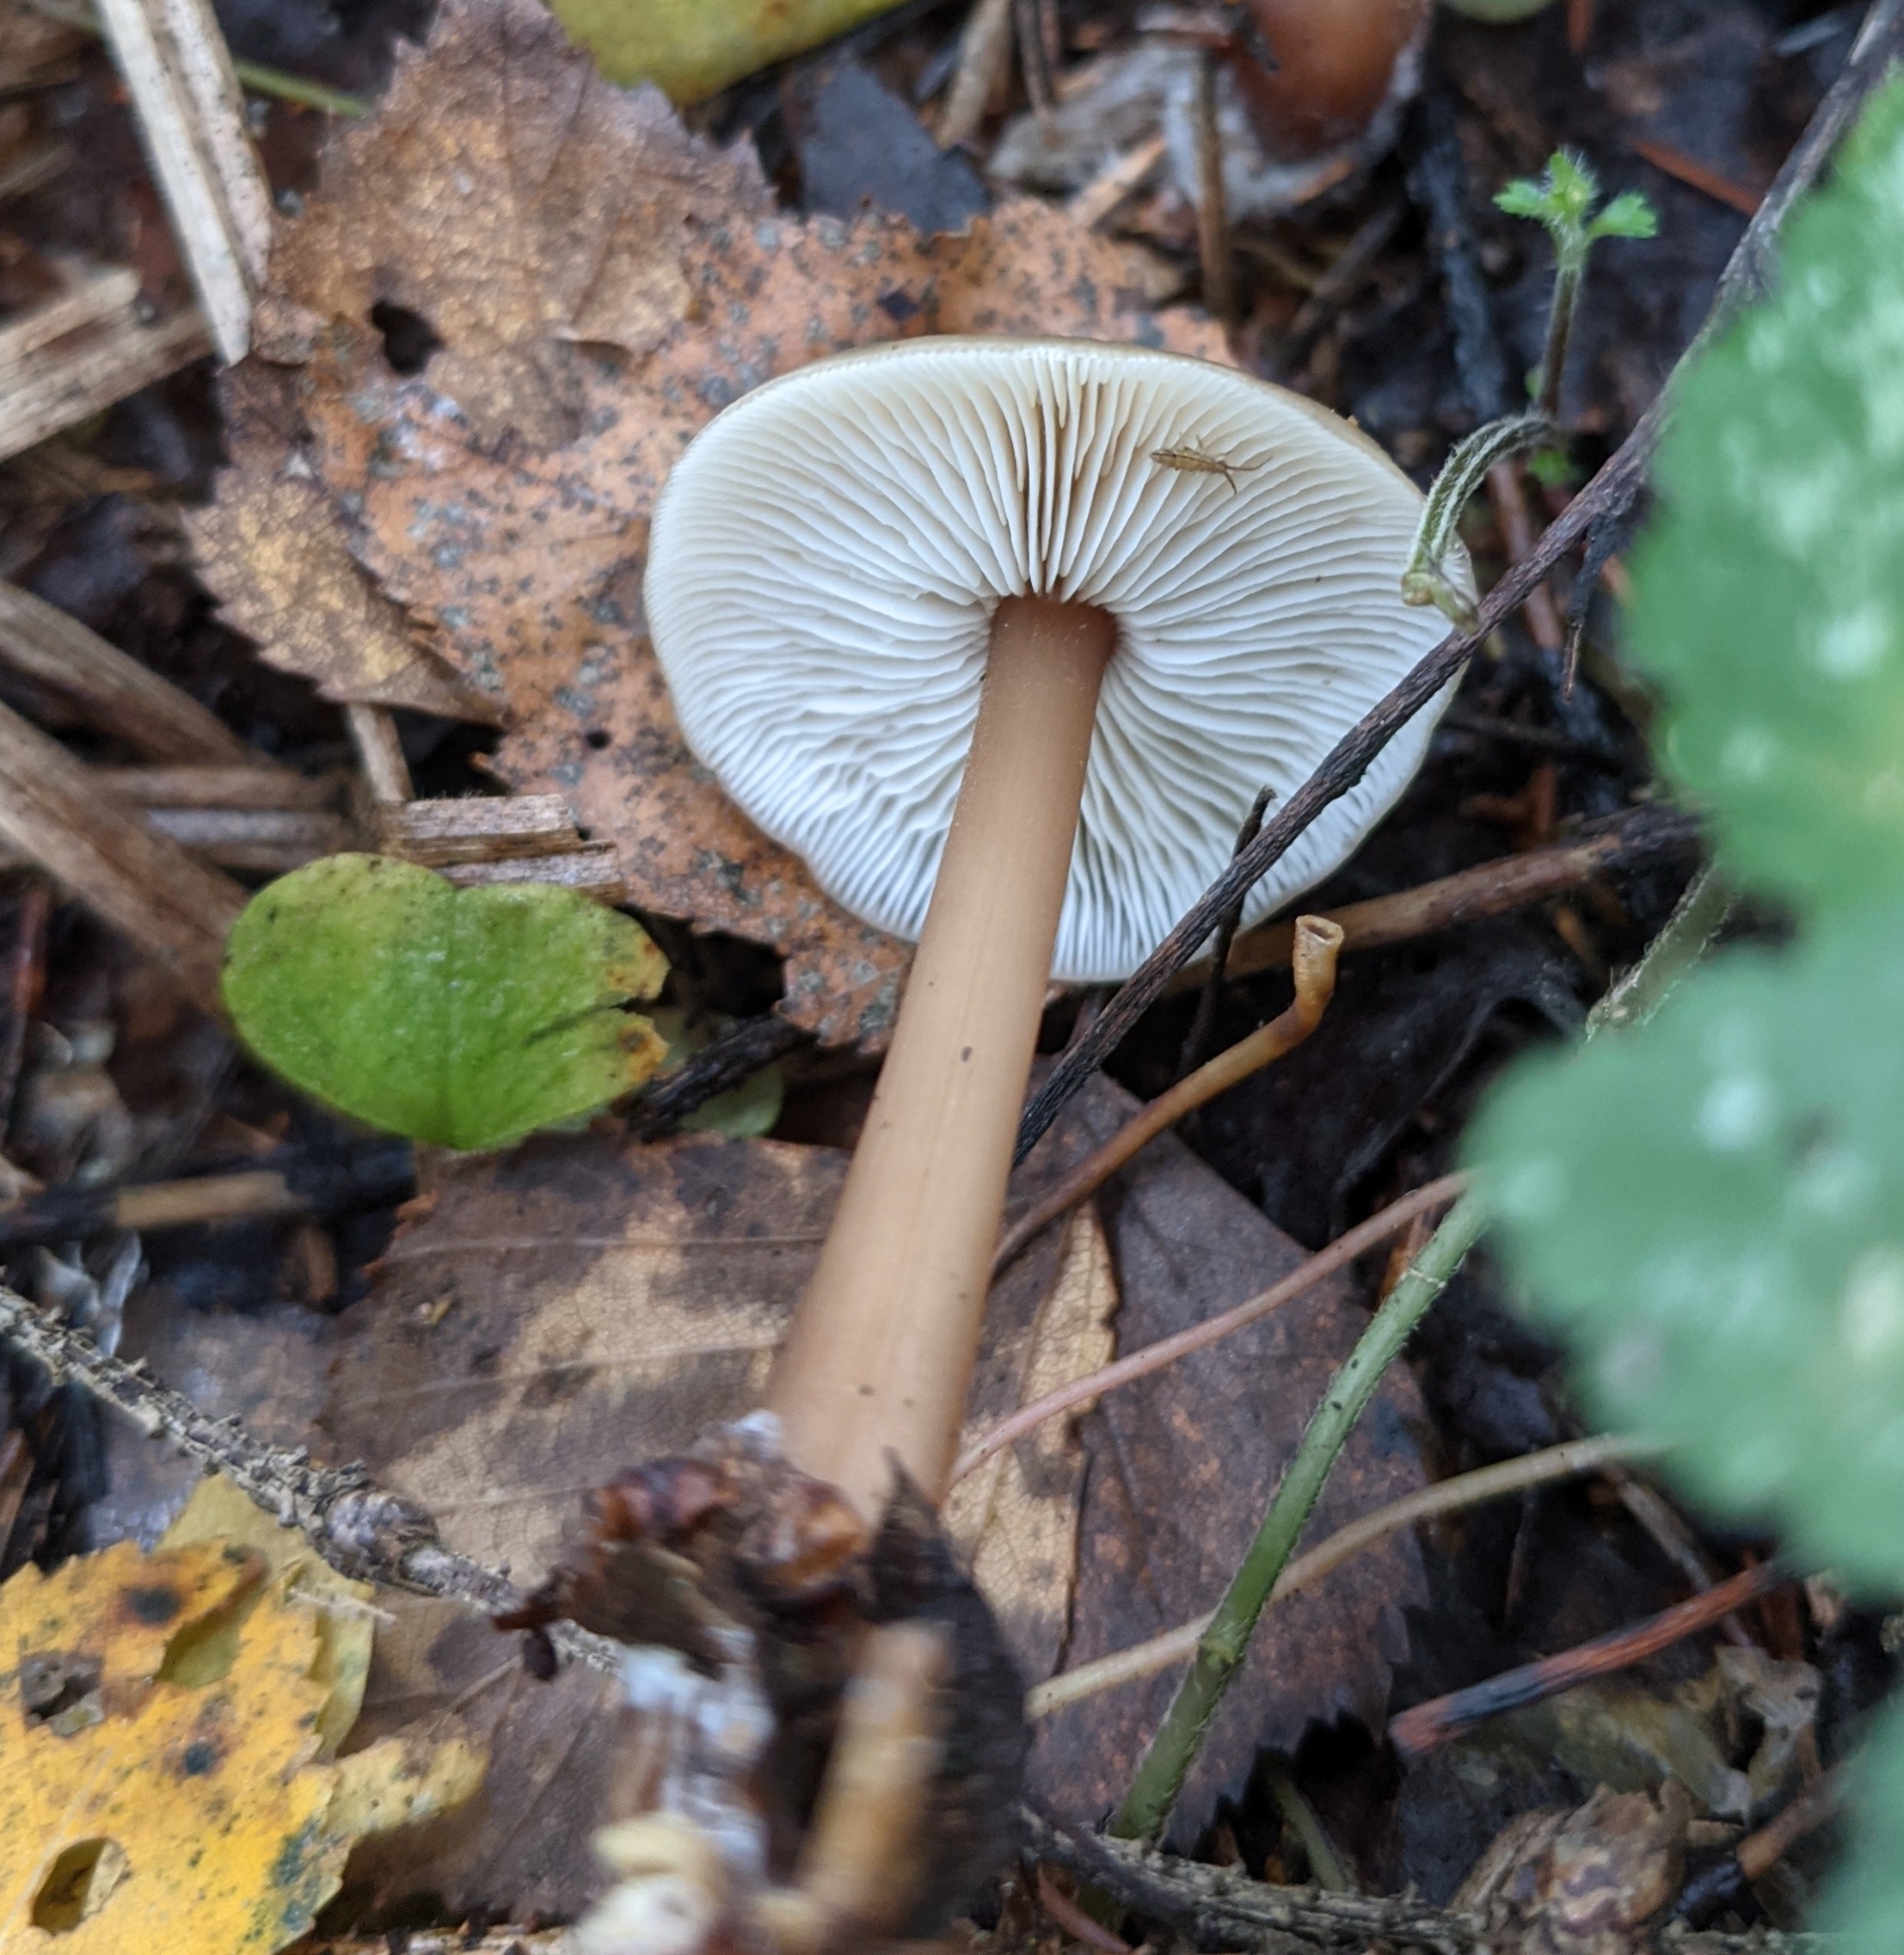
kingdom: Fungi
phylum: Basidiomycota
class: Agaricomycetes
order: Agaricales
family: Omphalotaceae
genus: Rhodocollybia
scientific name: Rhodocollybia butyracea
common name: Butter cap
